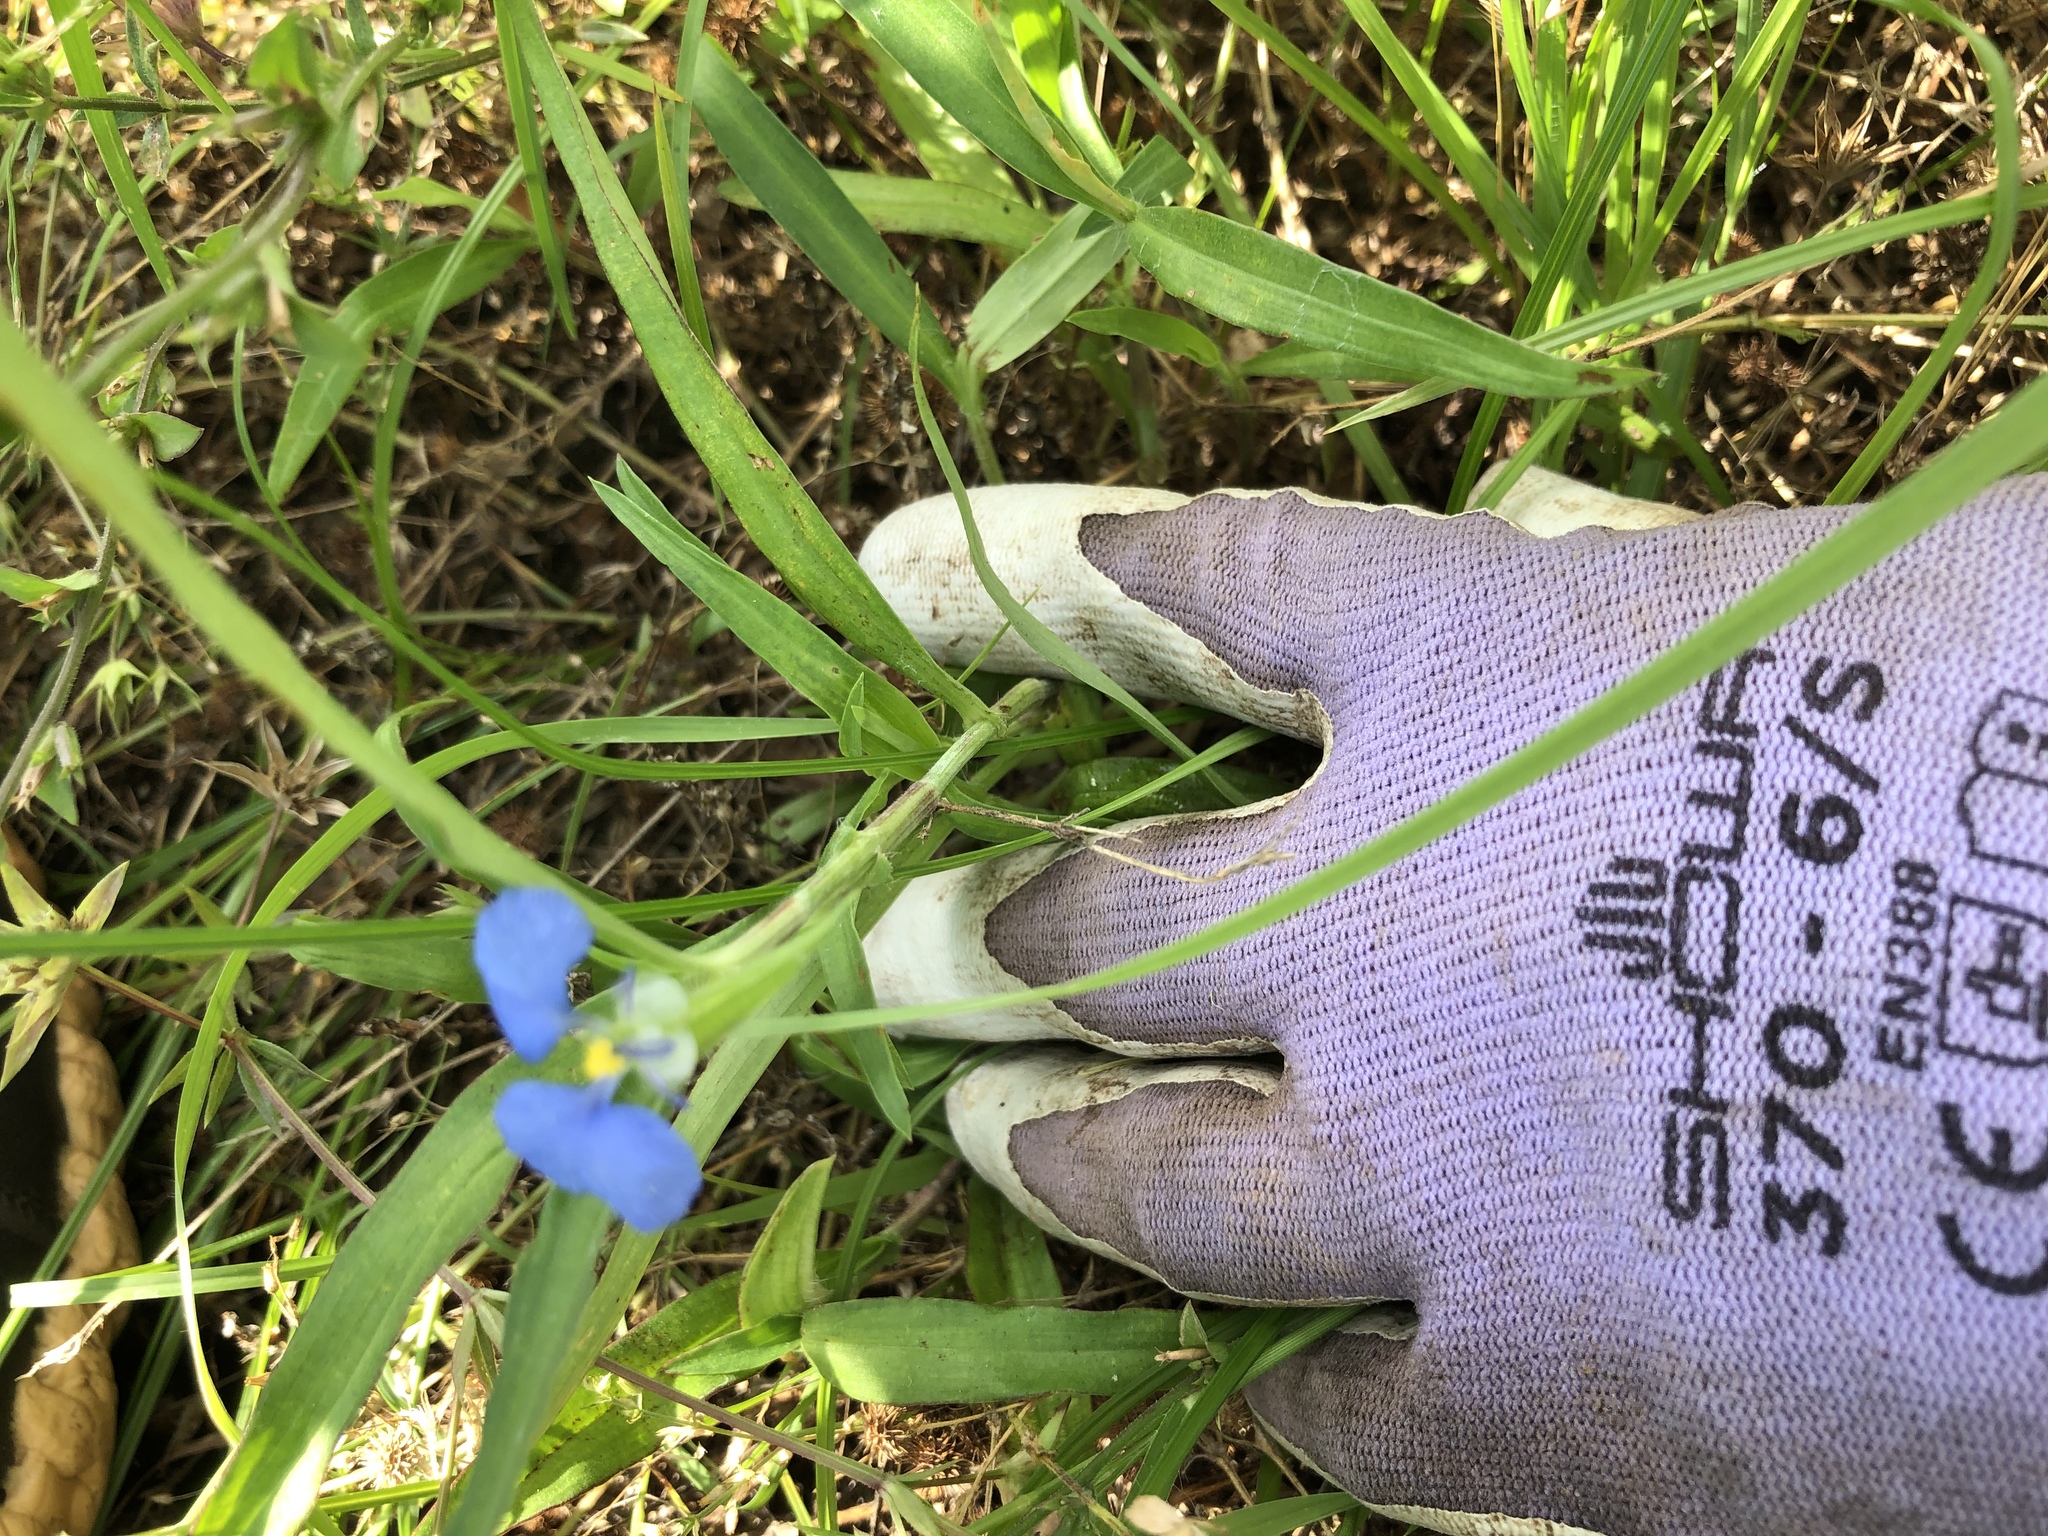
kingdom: Plantae
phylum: Tracheophyta
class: Liliopsida
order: Commelinales
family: Commelinaceae
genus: Commelina
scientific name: Commelina erecta
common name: Blousel blommetjie
